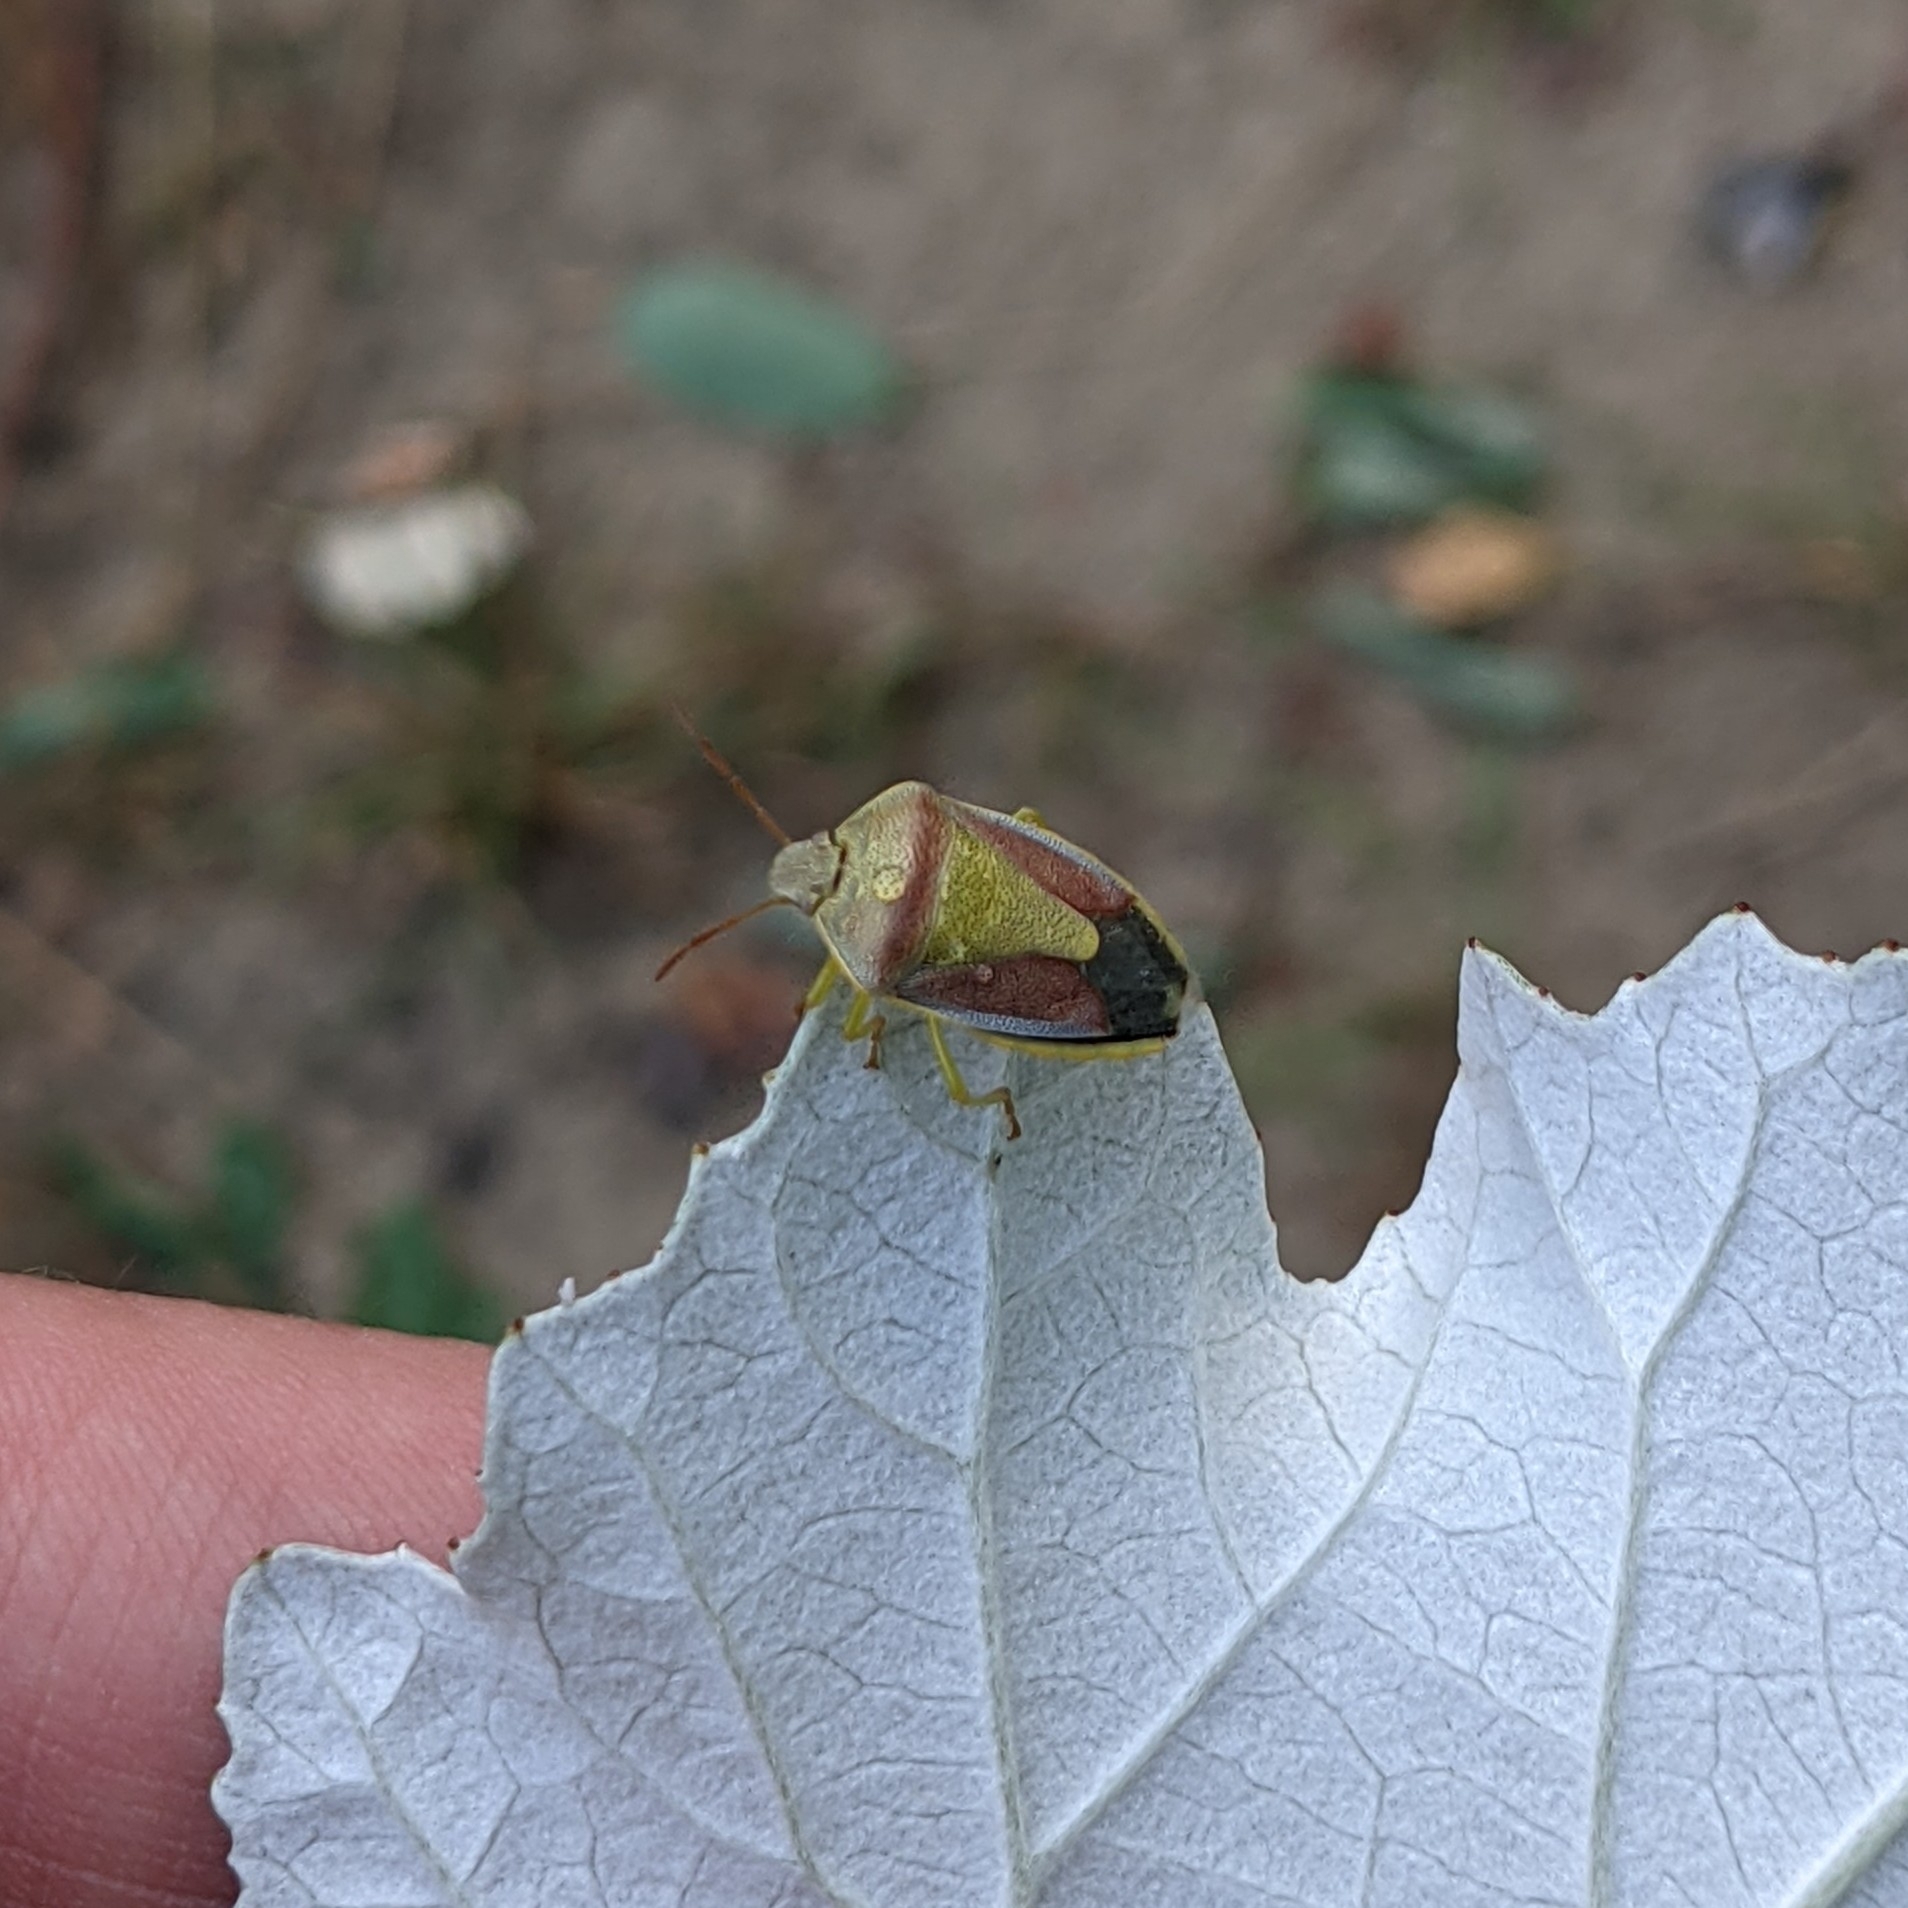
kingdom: Animalia
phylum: Arthropoda
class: Insecta
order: Hemiptera
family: Pentatomidae
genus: Piezodorus
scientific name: Piezodorus lituratus
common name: Stink bug
